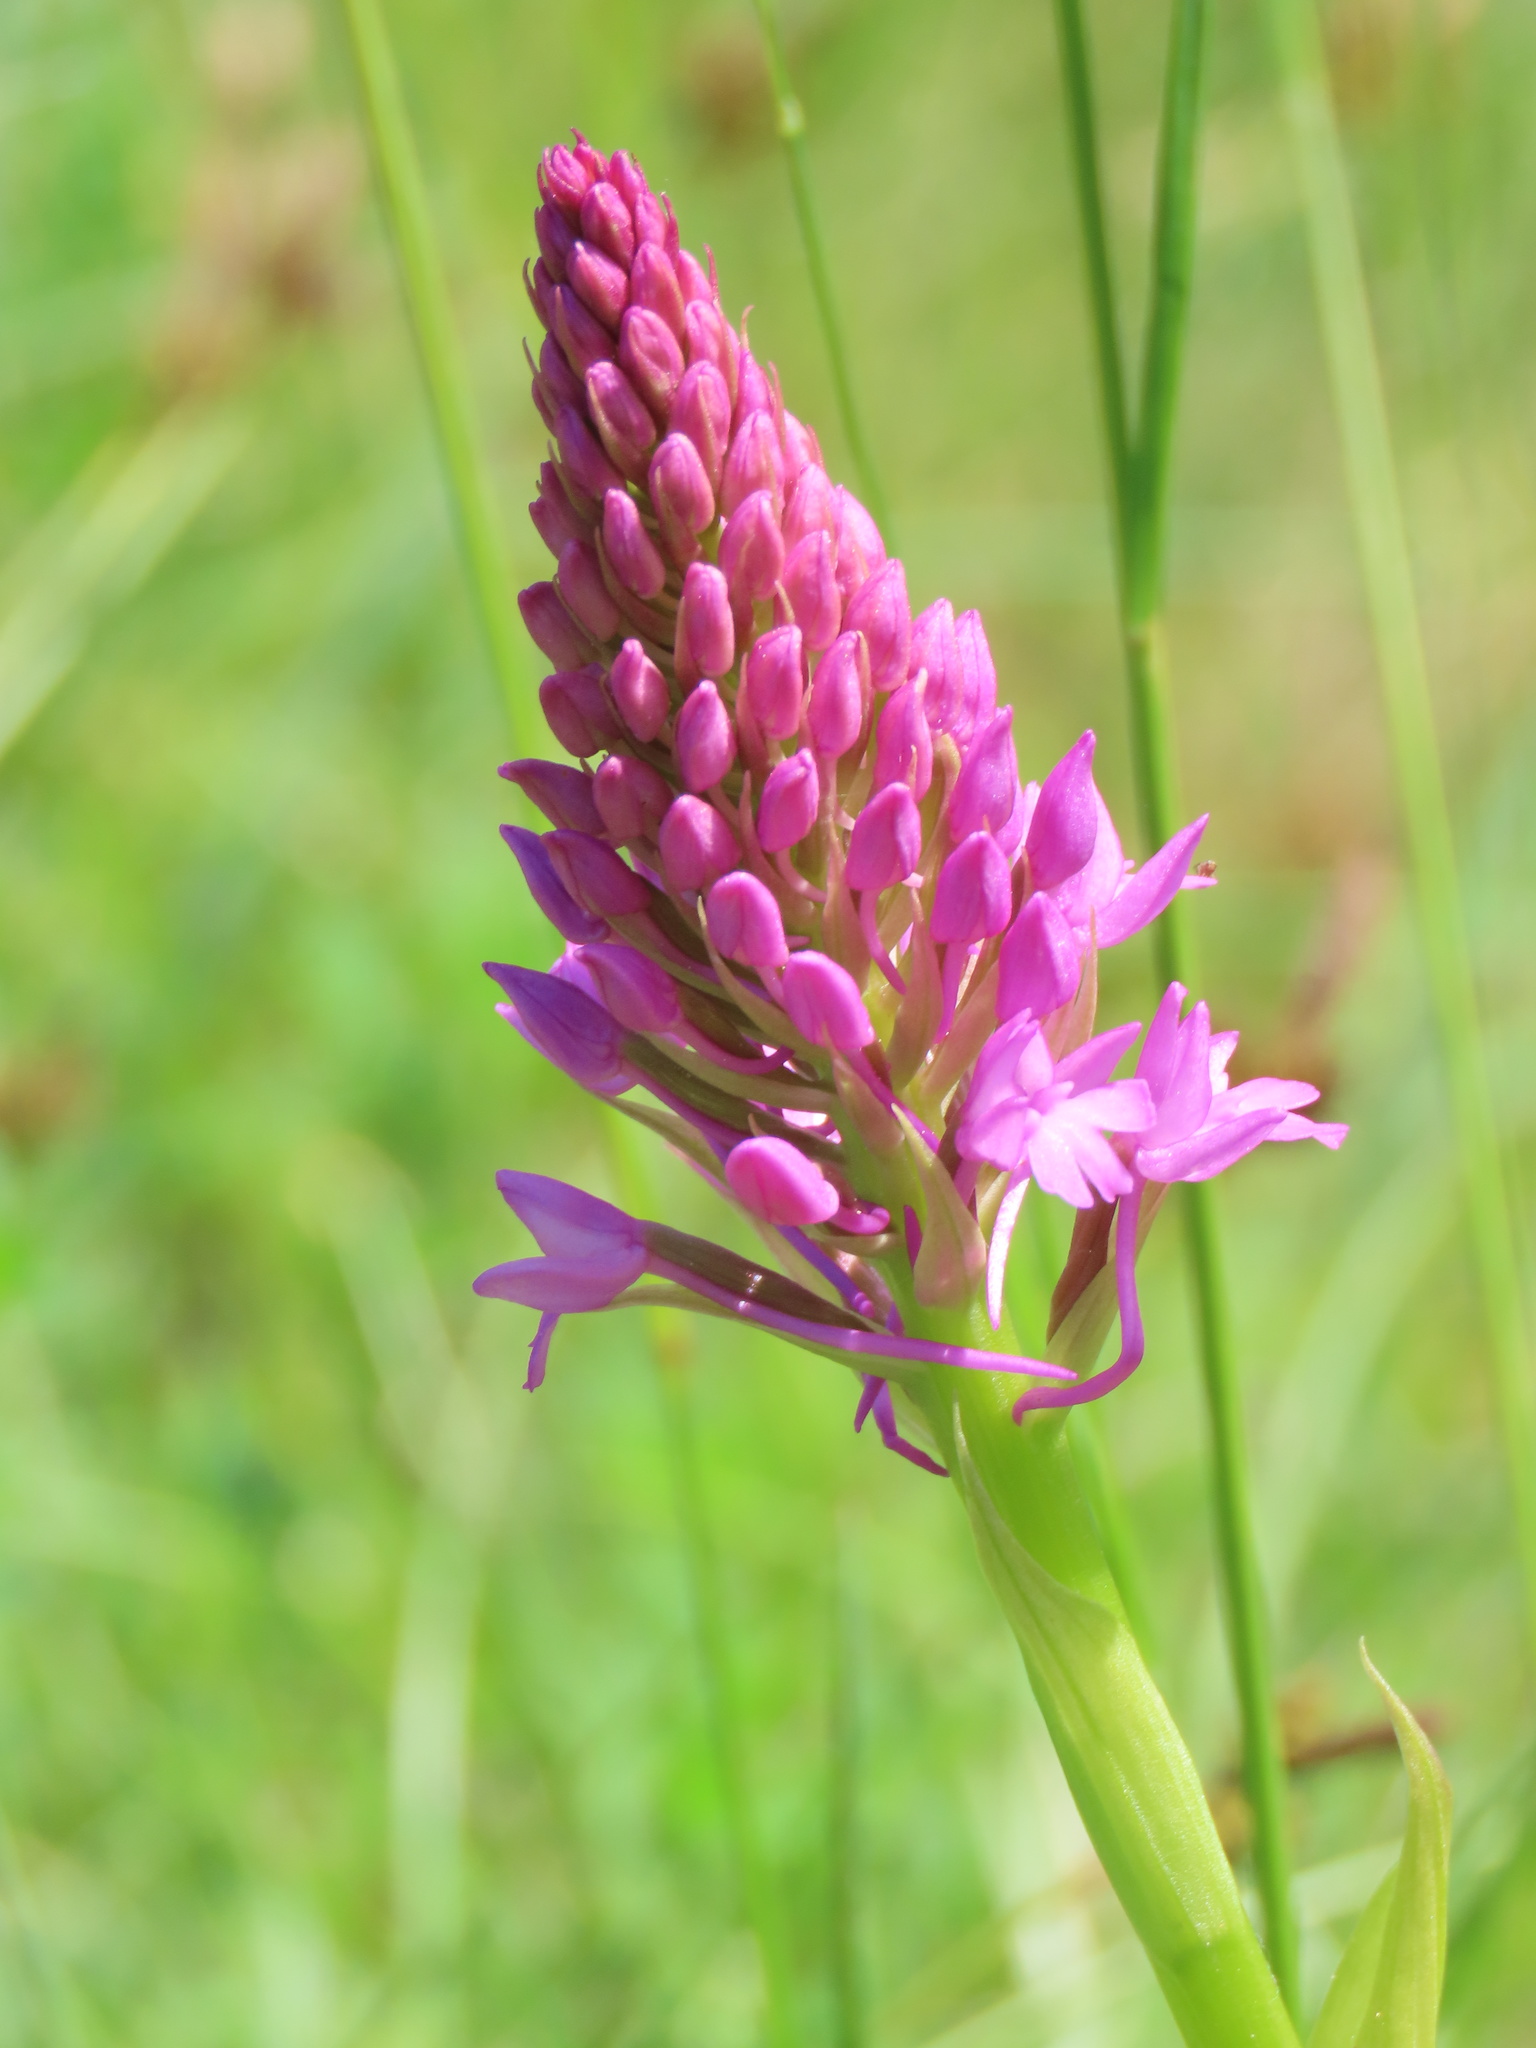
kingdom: Plantae
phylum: Tracheophyta
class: Liliopsida
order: Asparagales
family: Orchidaceae
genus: Anacamptis
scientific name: Anacamptis pyramidalis
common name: Pyramidal orchid
